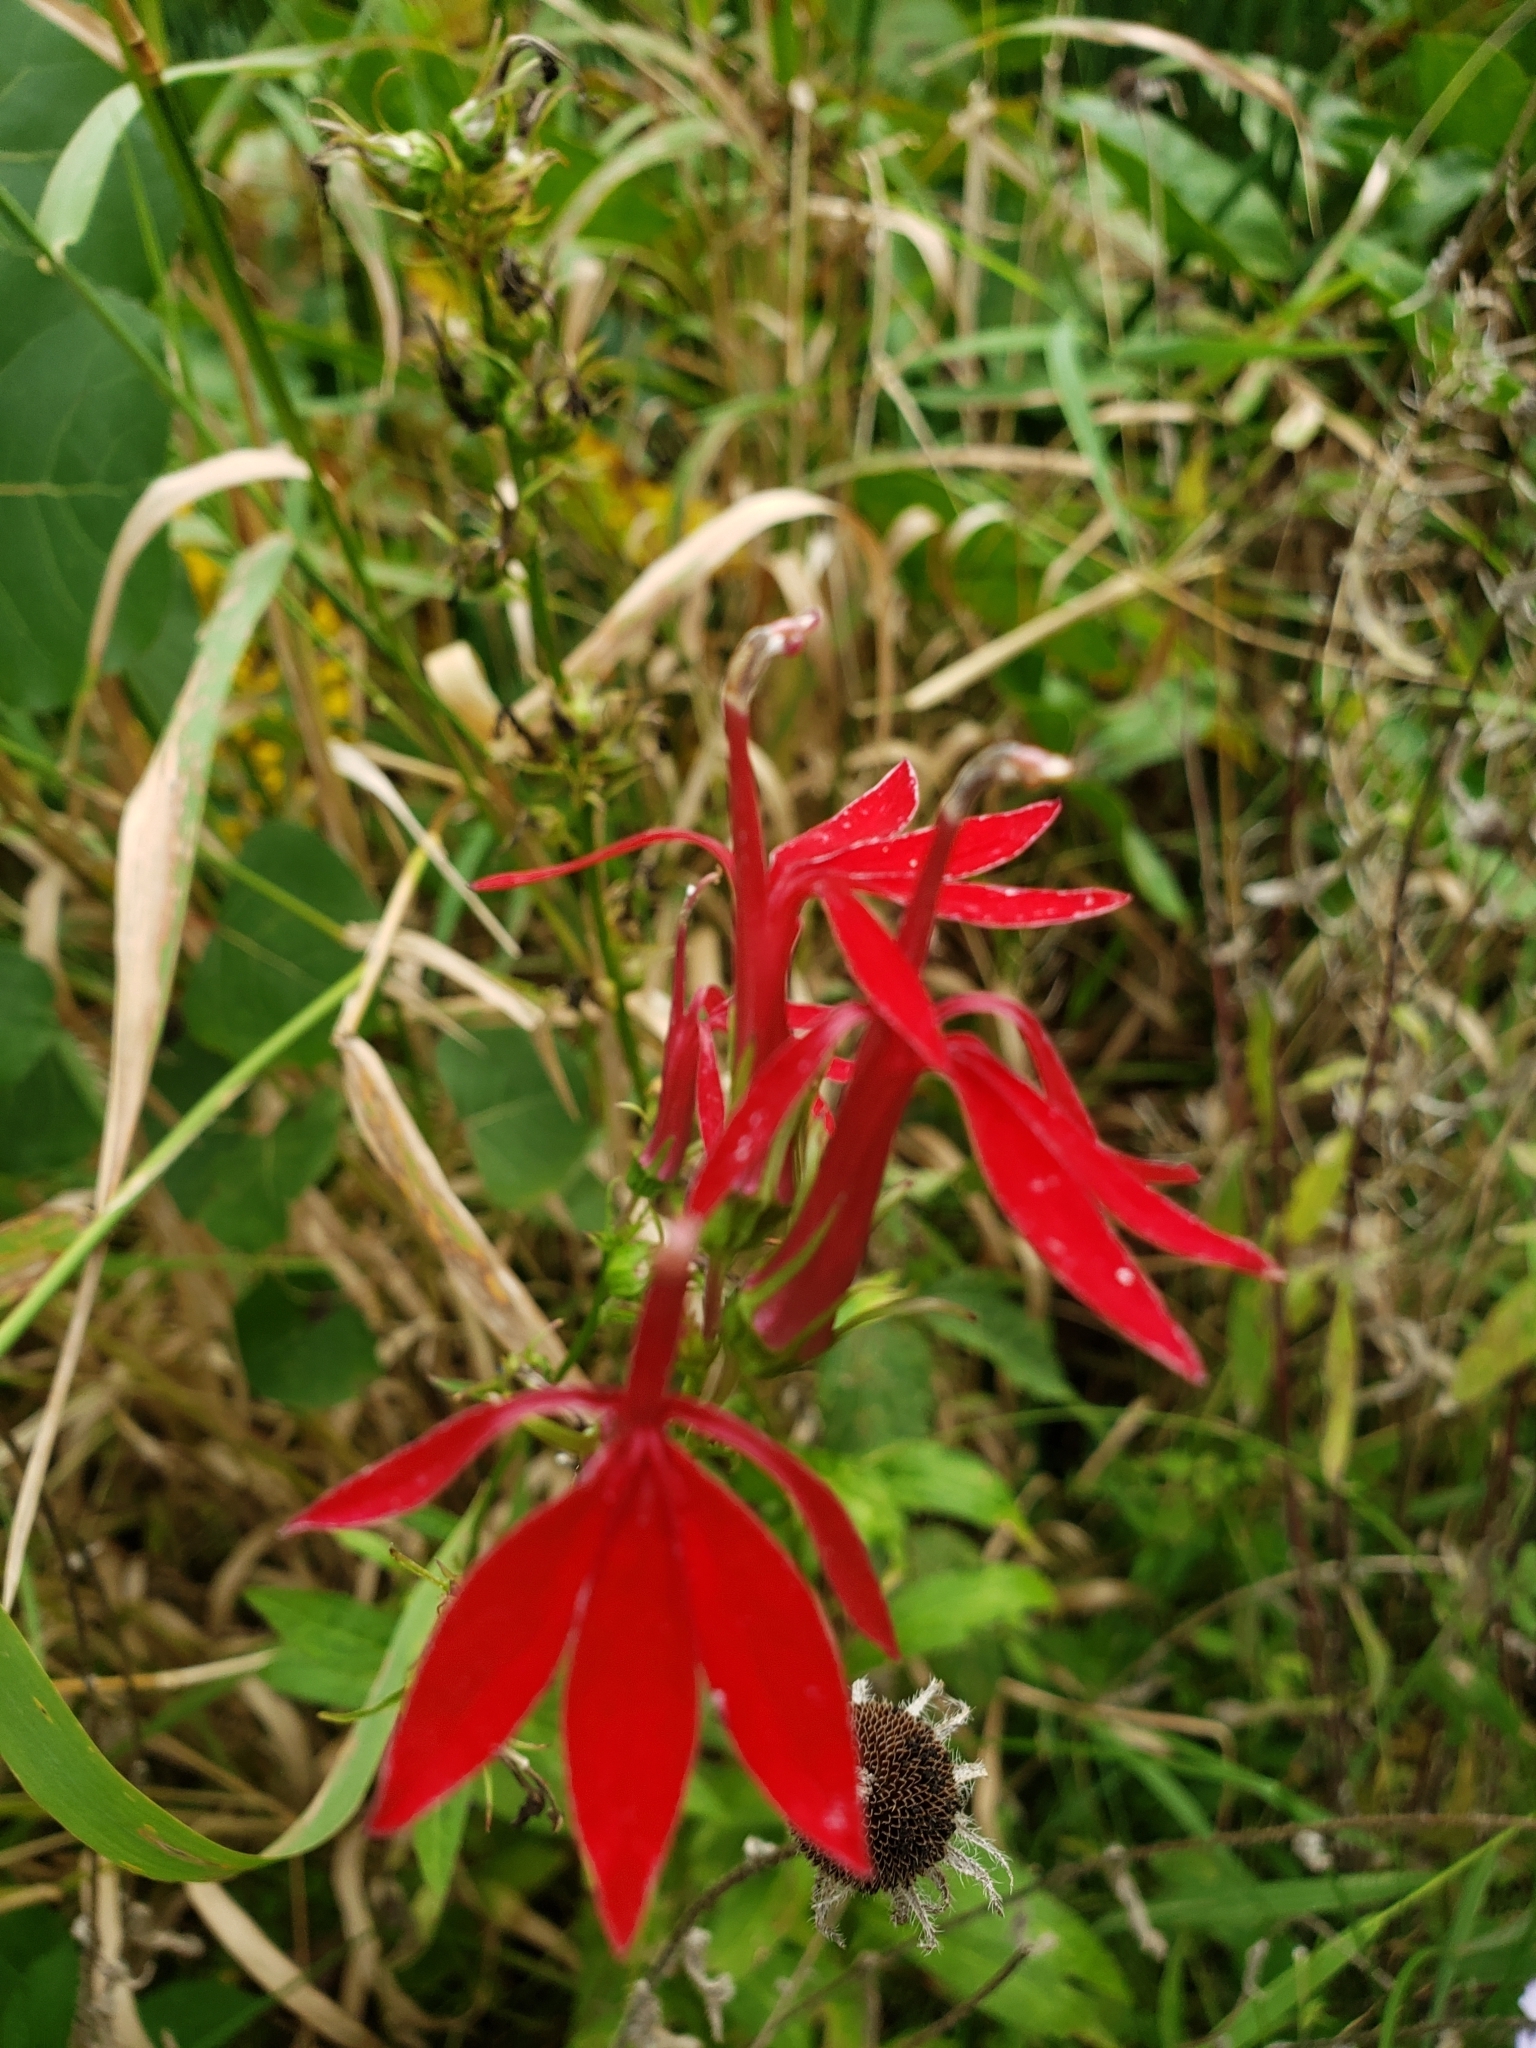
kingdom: Plantae
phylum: Tracheophyta
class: Magnoliopsida
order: Asterales
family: Campanulaceae
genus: Lobelia
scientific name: Lobelia cardinalis
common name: Cardinal flower
